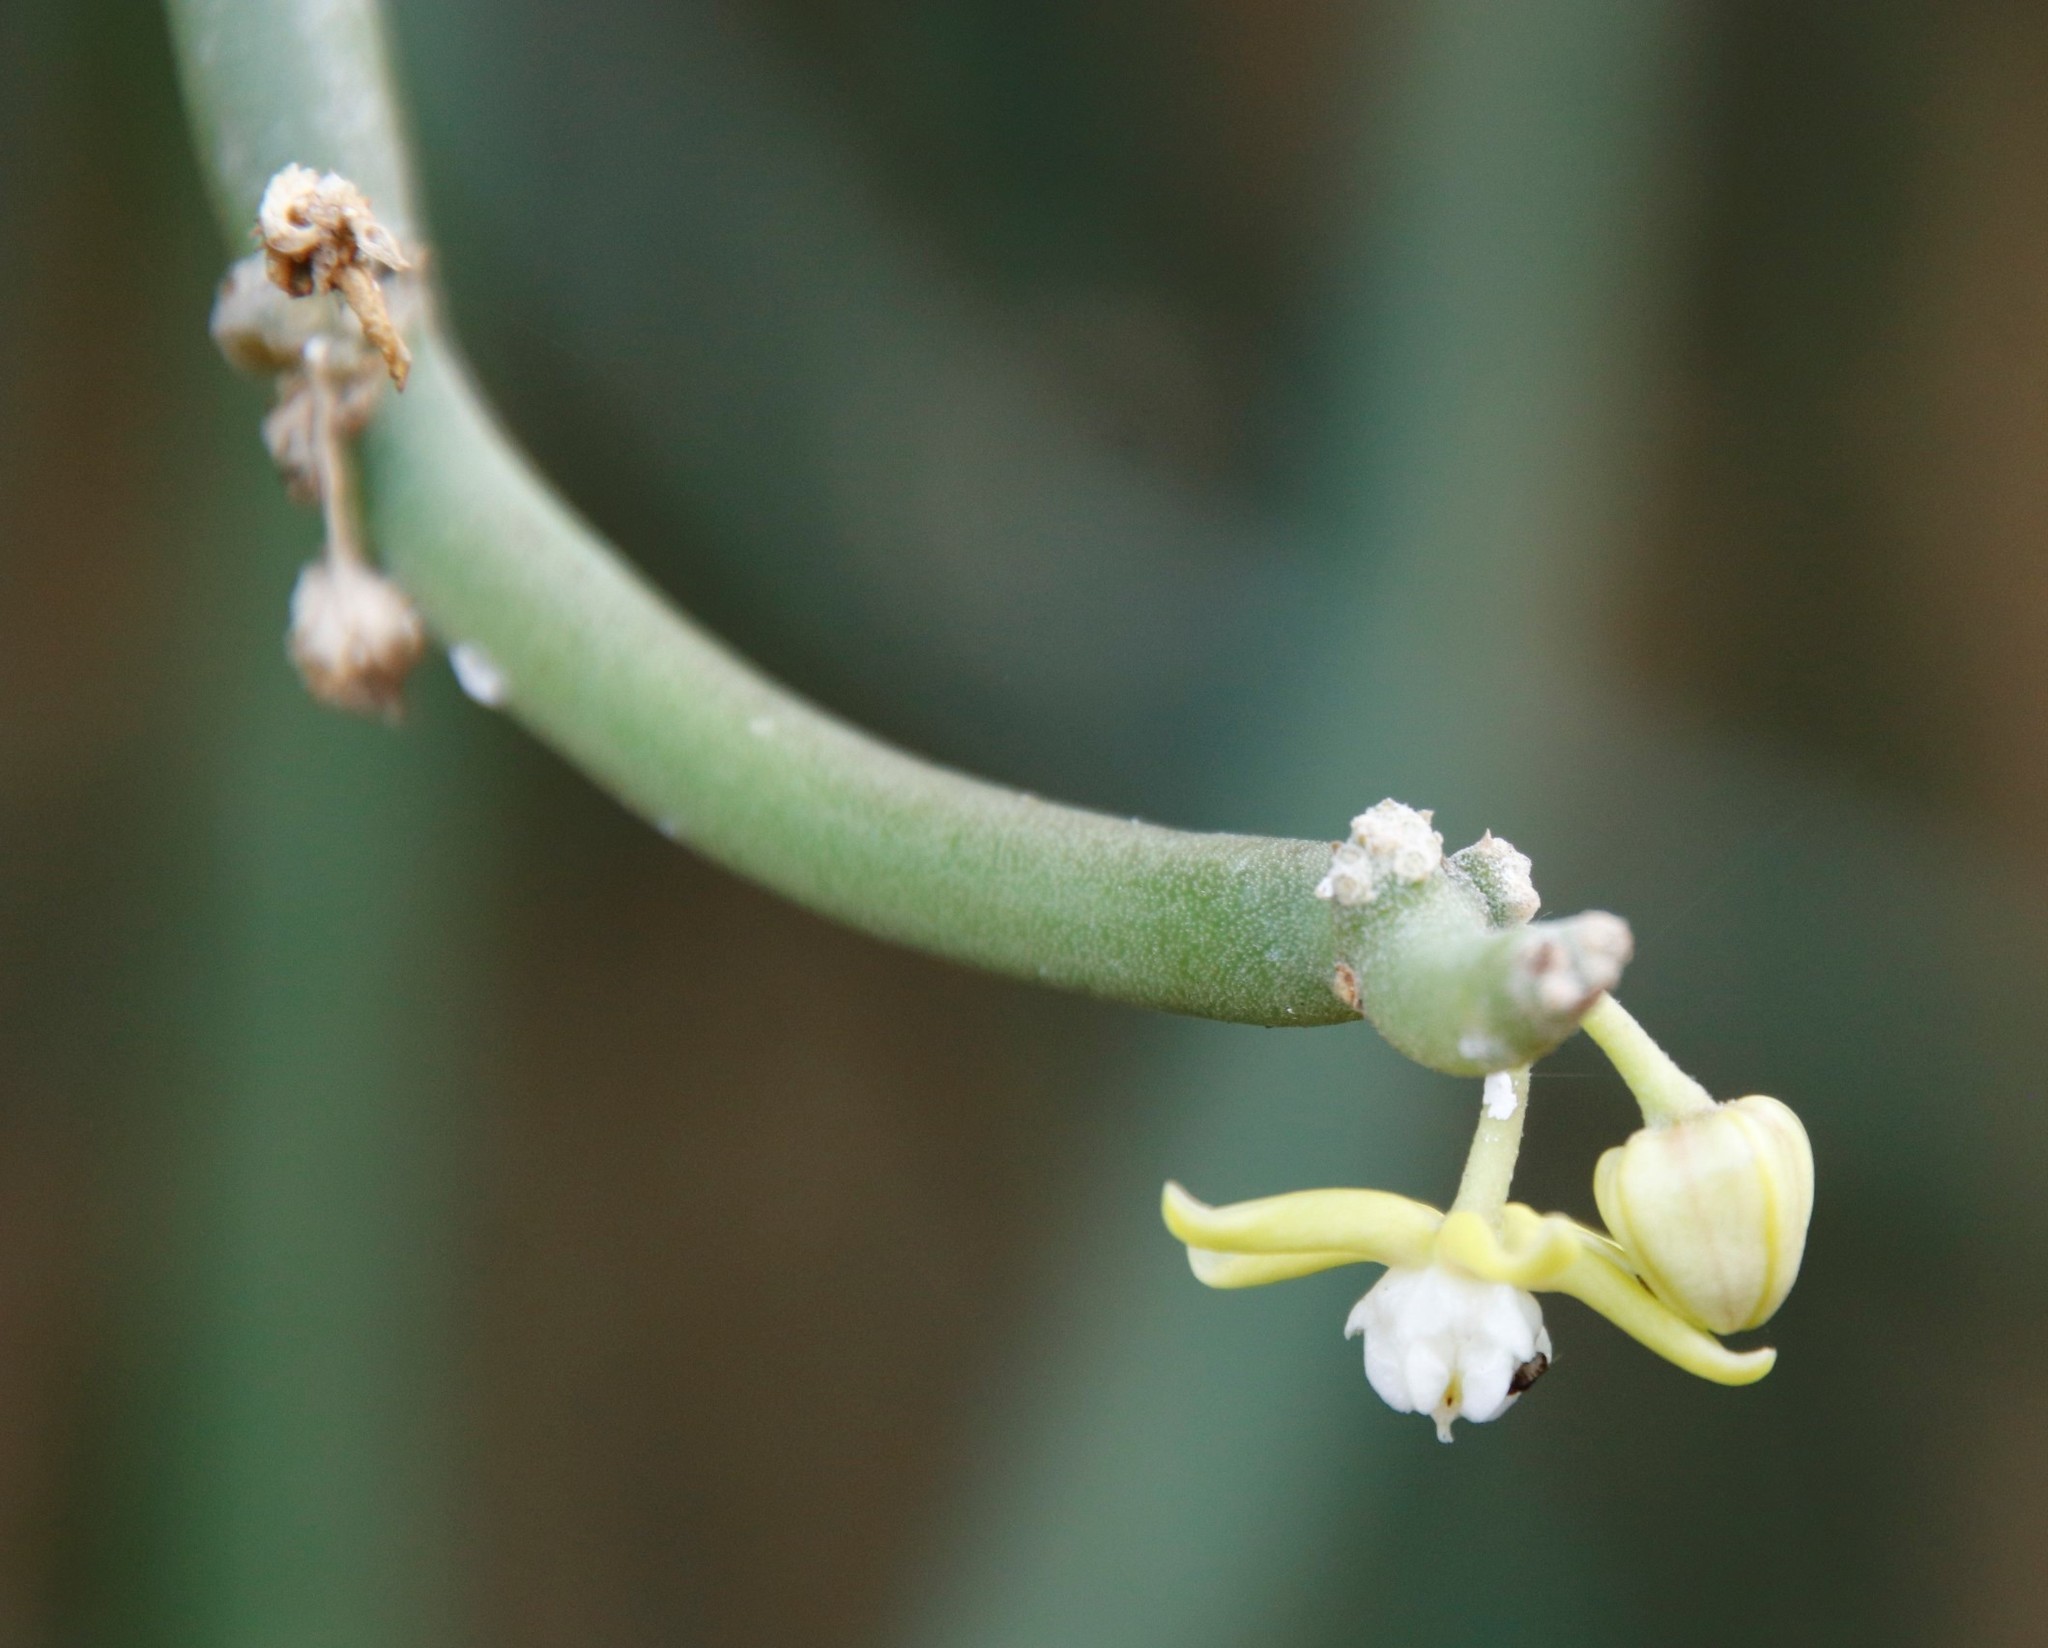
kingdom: Plantae
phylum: Tracheophyta
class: Magnoliopsida
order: Gentianales
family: Apocynaceae
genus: Cynanchum
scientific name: Cynanchum viminale
